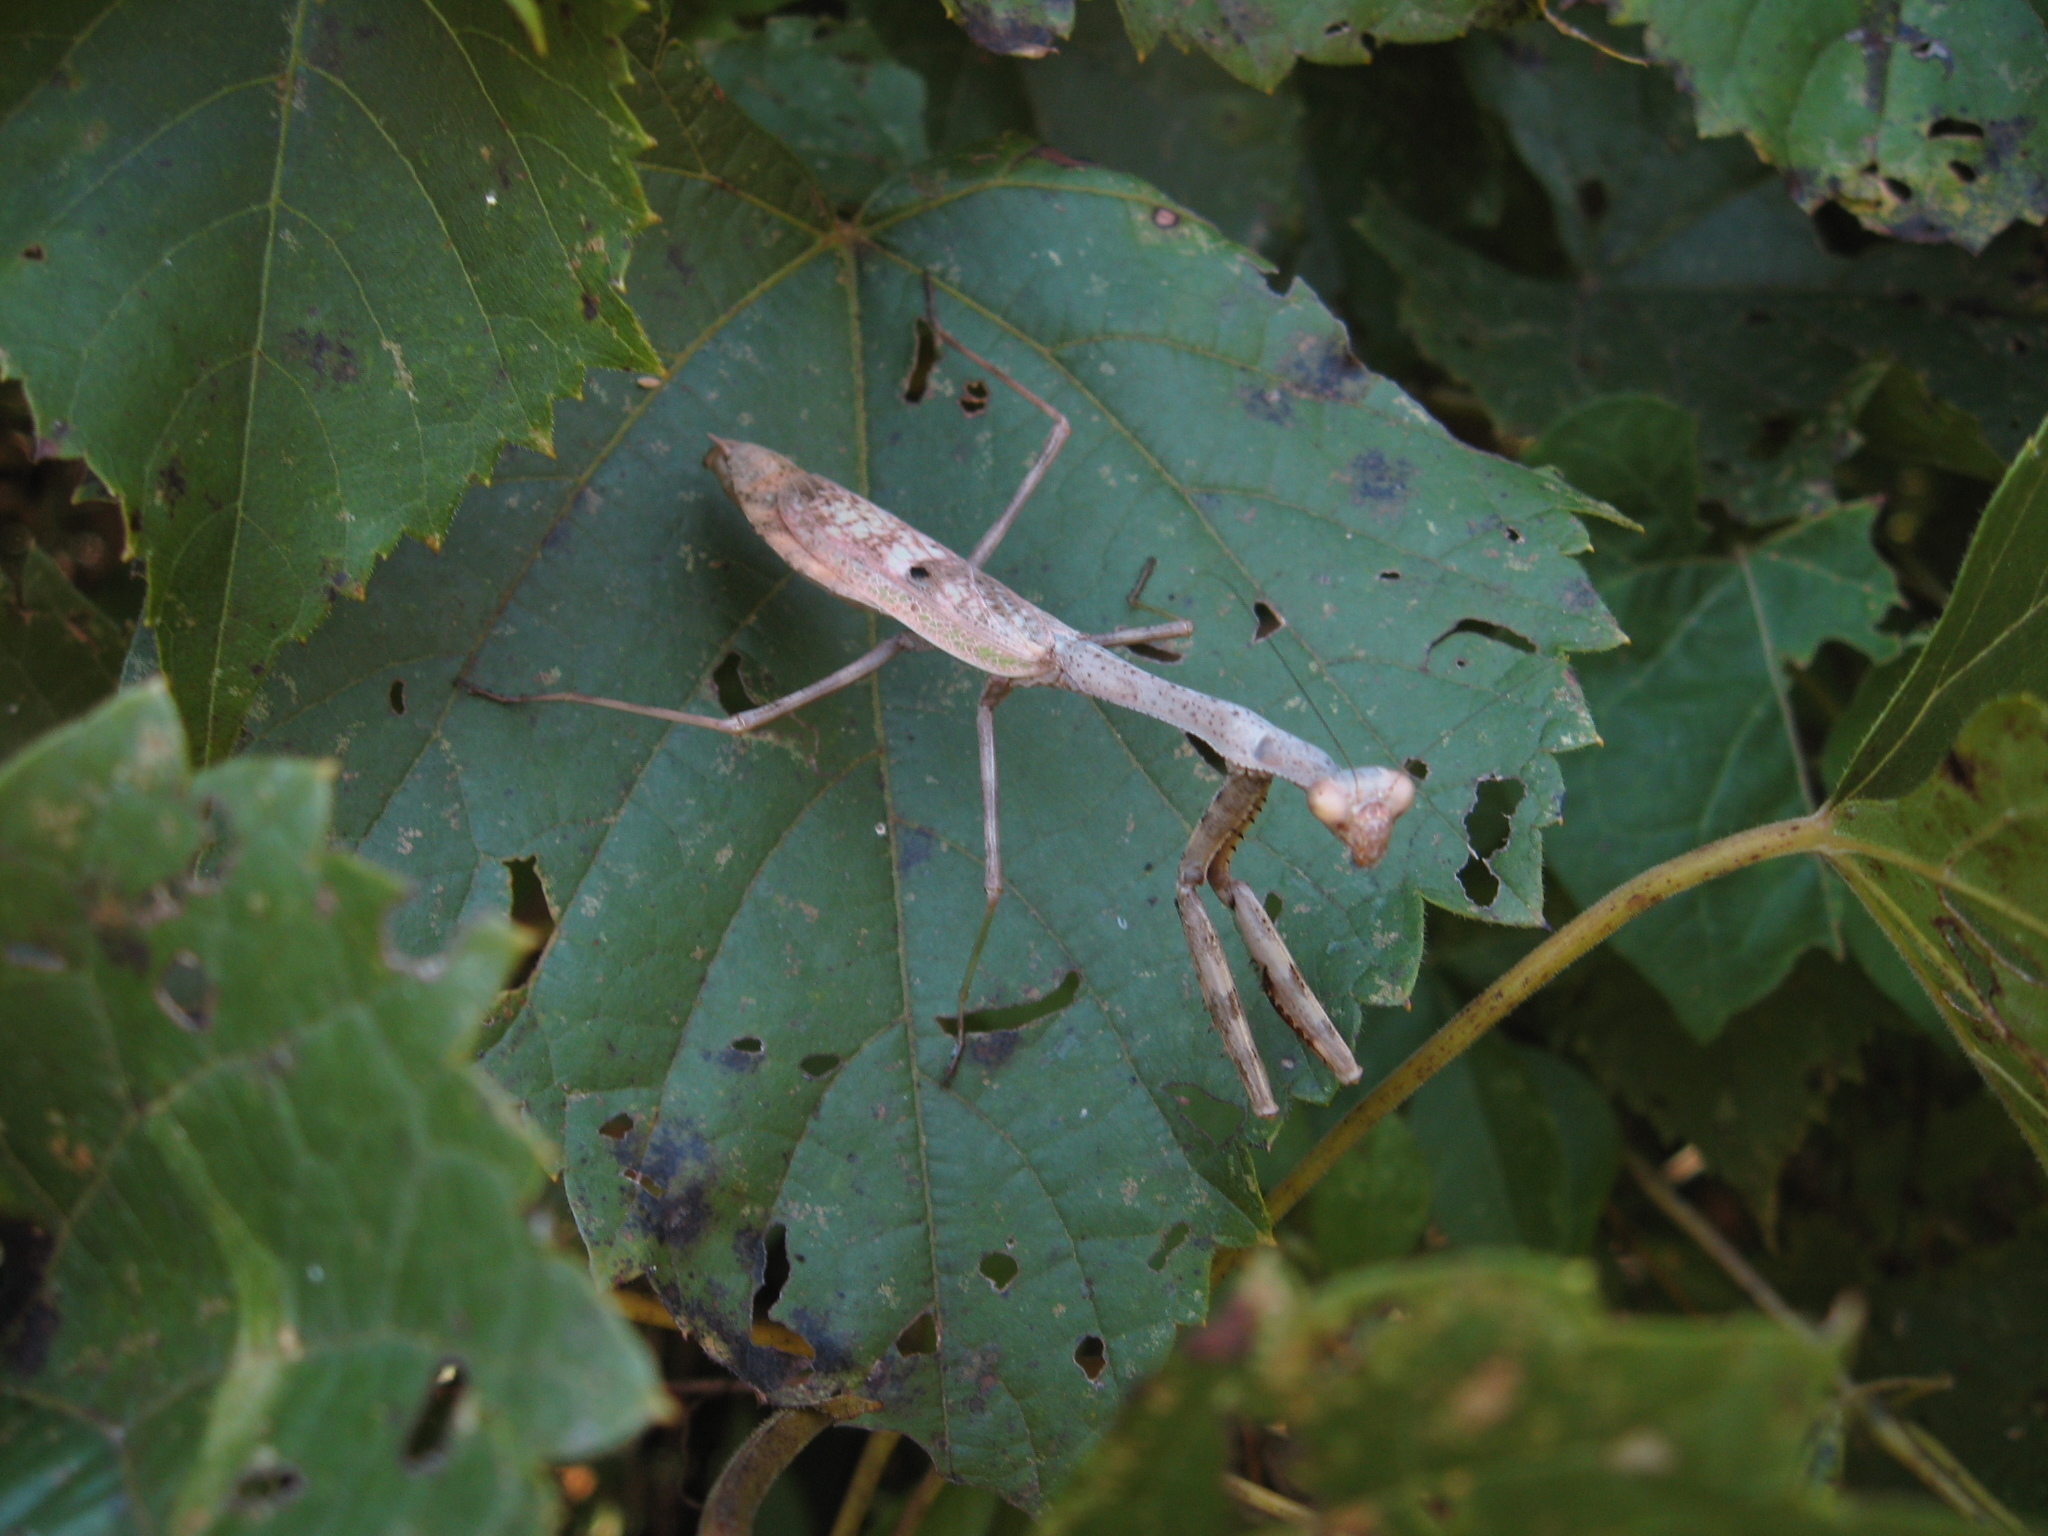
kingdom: Animalia
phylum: Arthropoda
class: Insecta
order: Mantodea
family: Mantidae
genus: Stagmomantis
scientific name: Stagmomantis carolina
